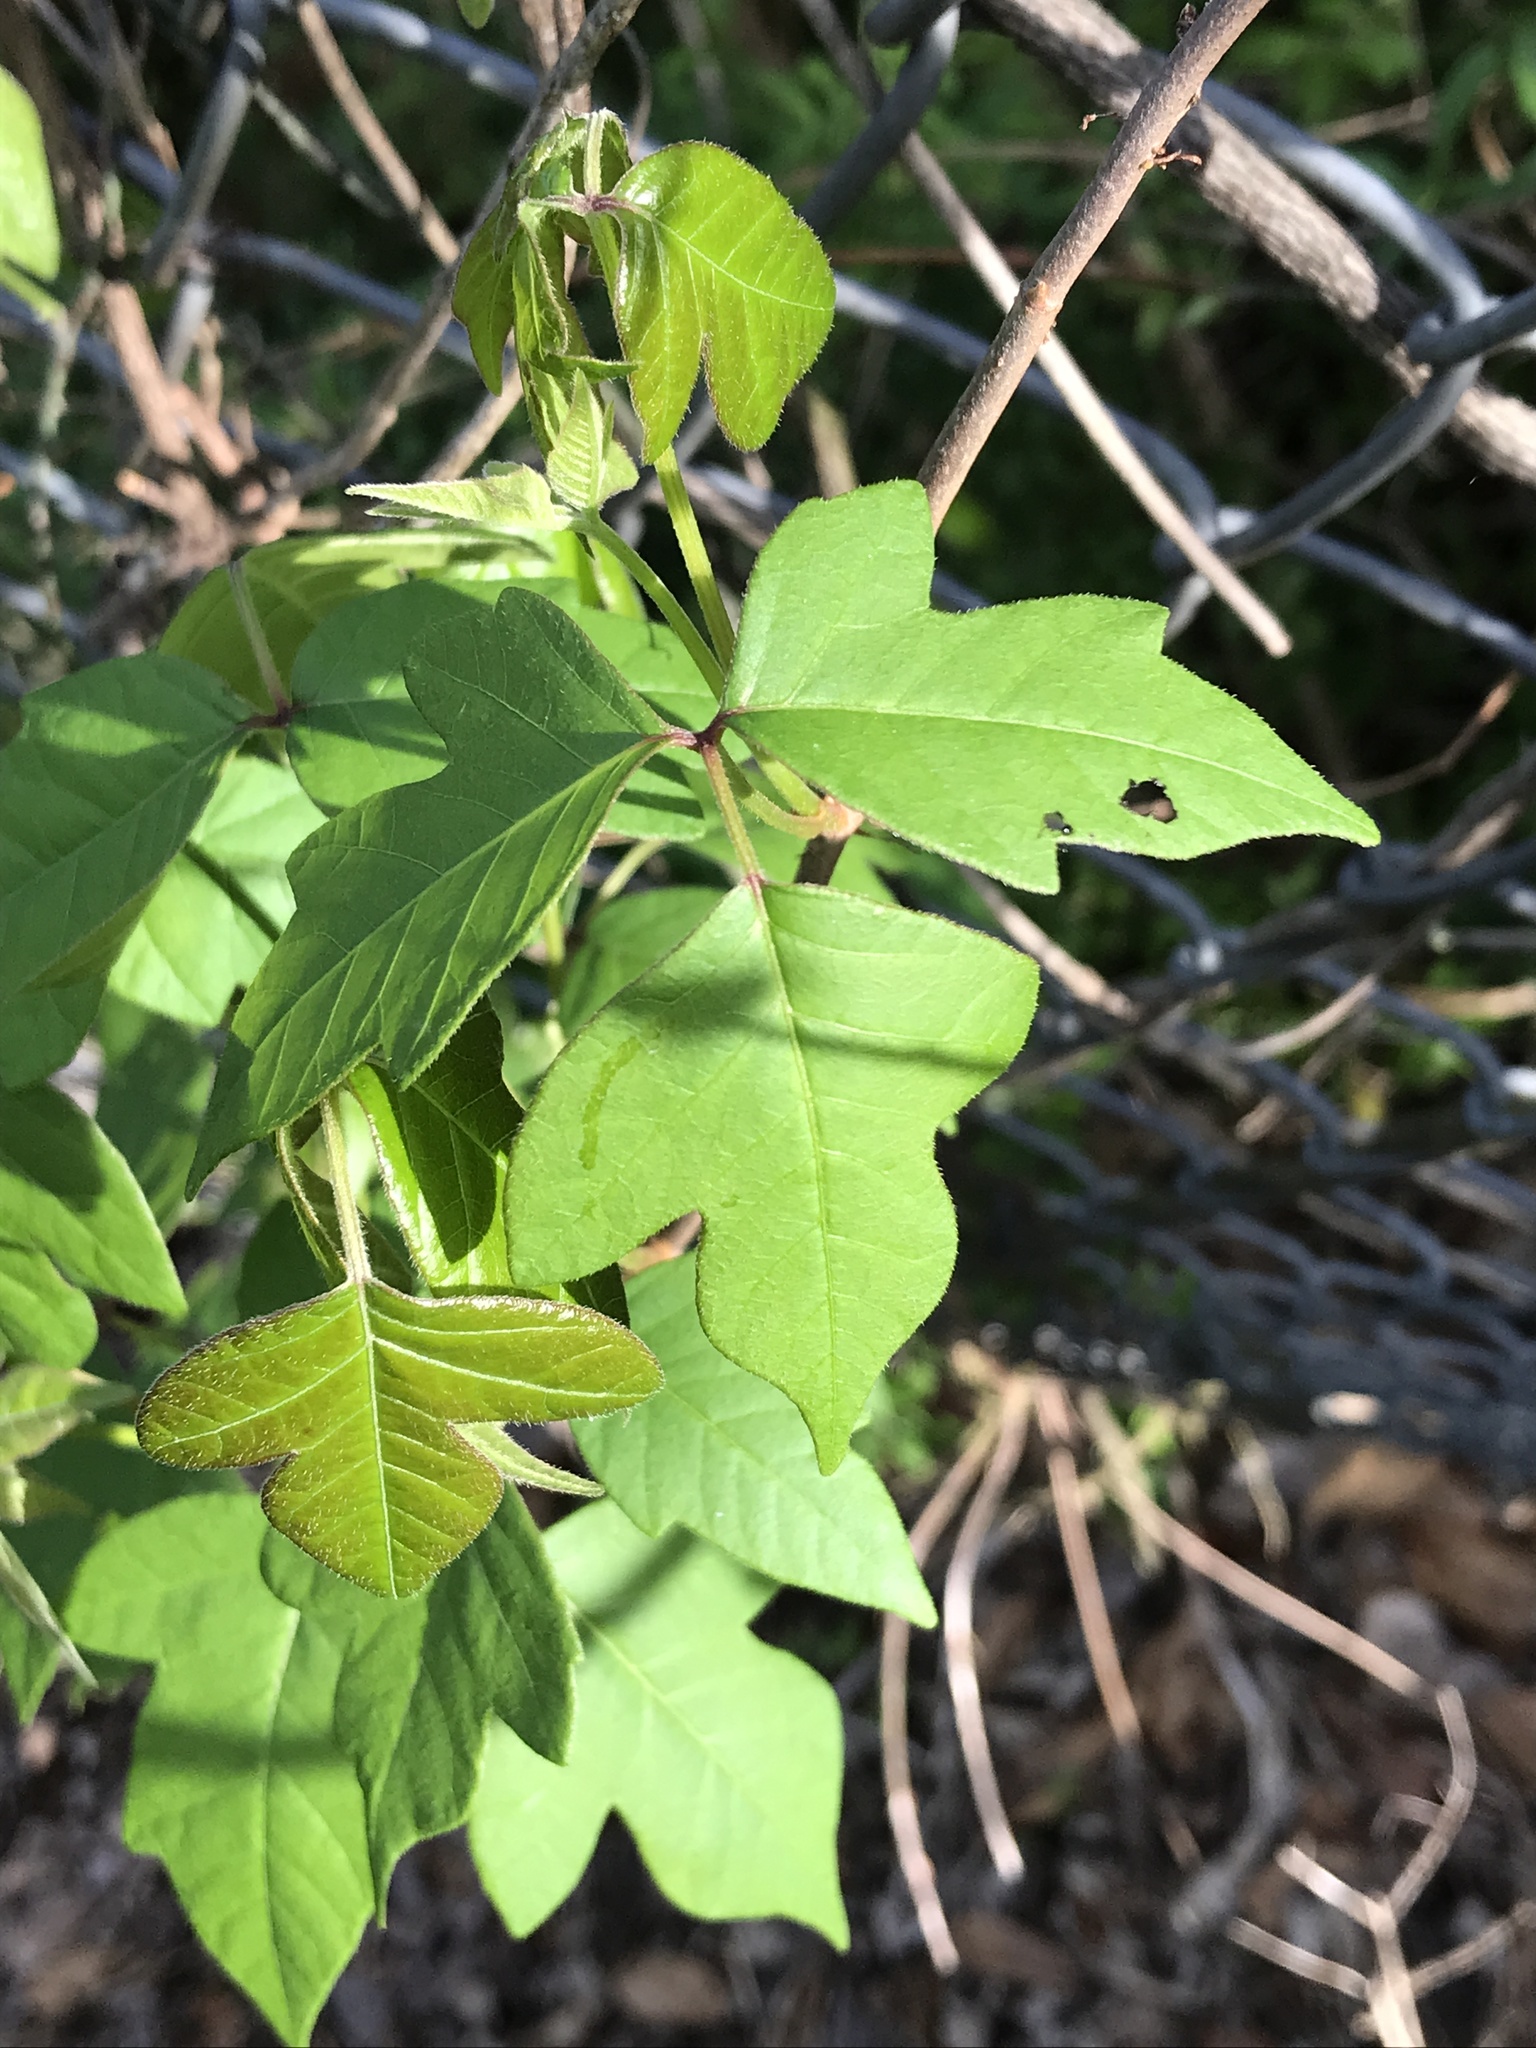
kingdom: Plantae
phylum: Tracheophyta
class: Magnoliopsida
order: Sapindales
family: Anacardiaceae
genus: Toxicodendron
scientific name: Toxicodendron radicans
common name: Poison ivy
